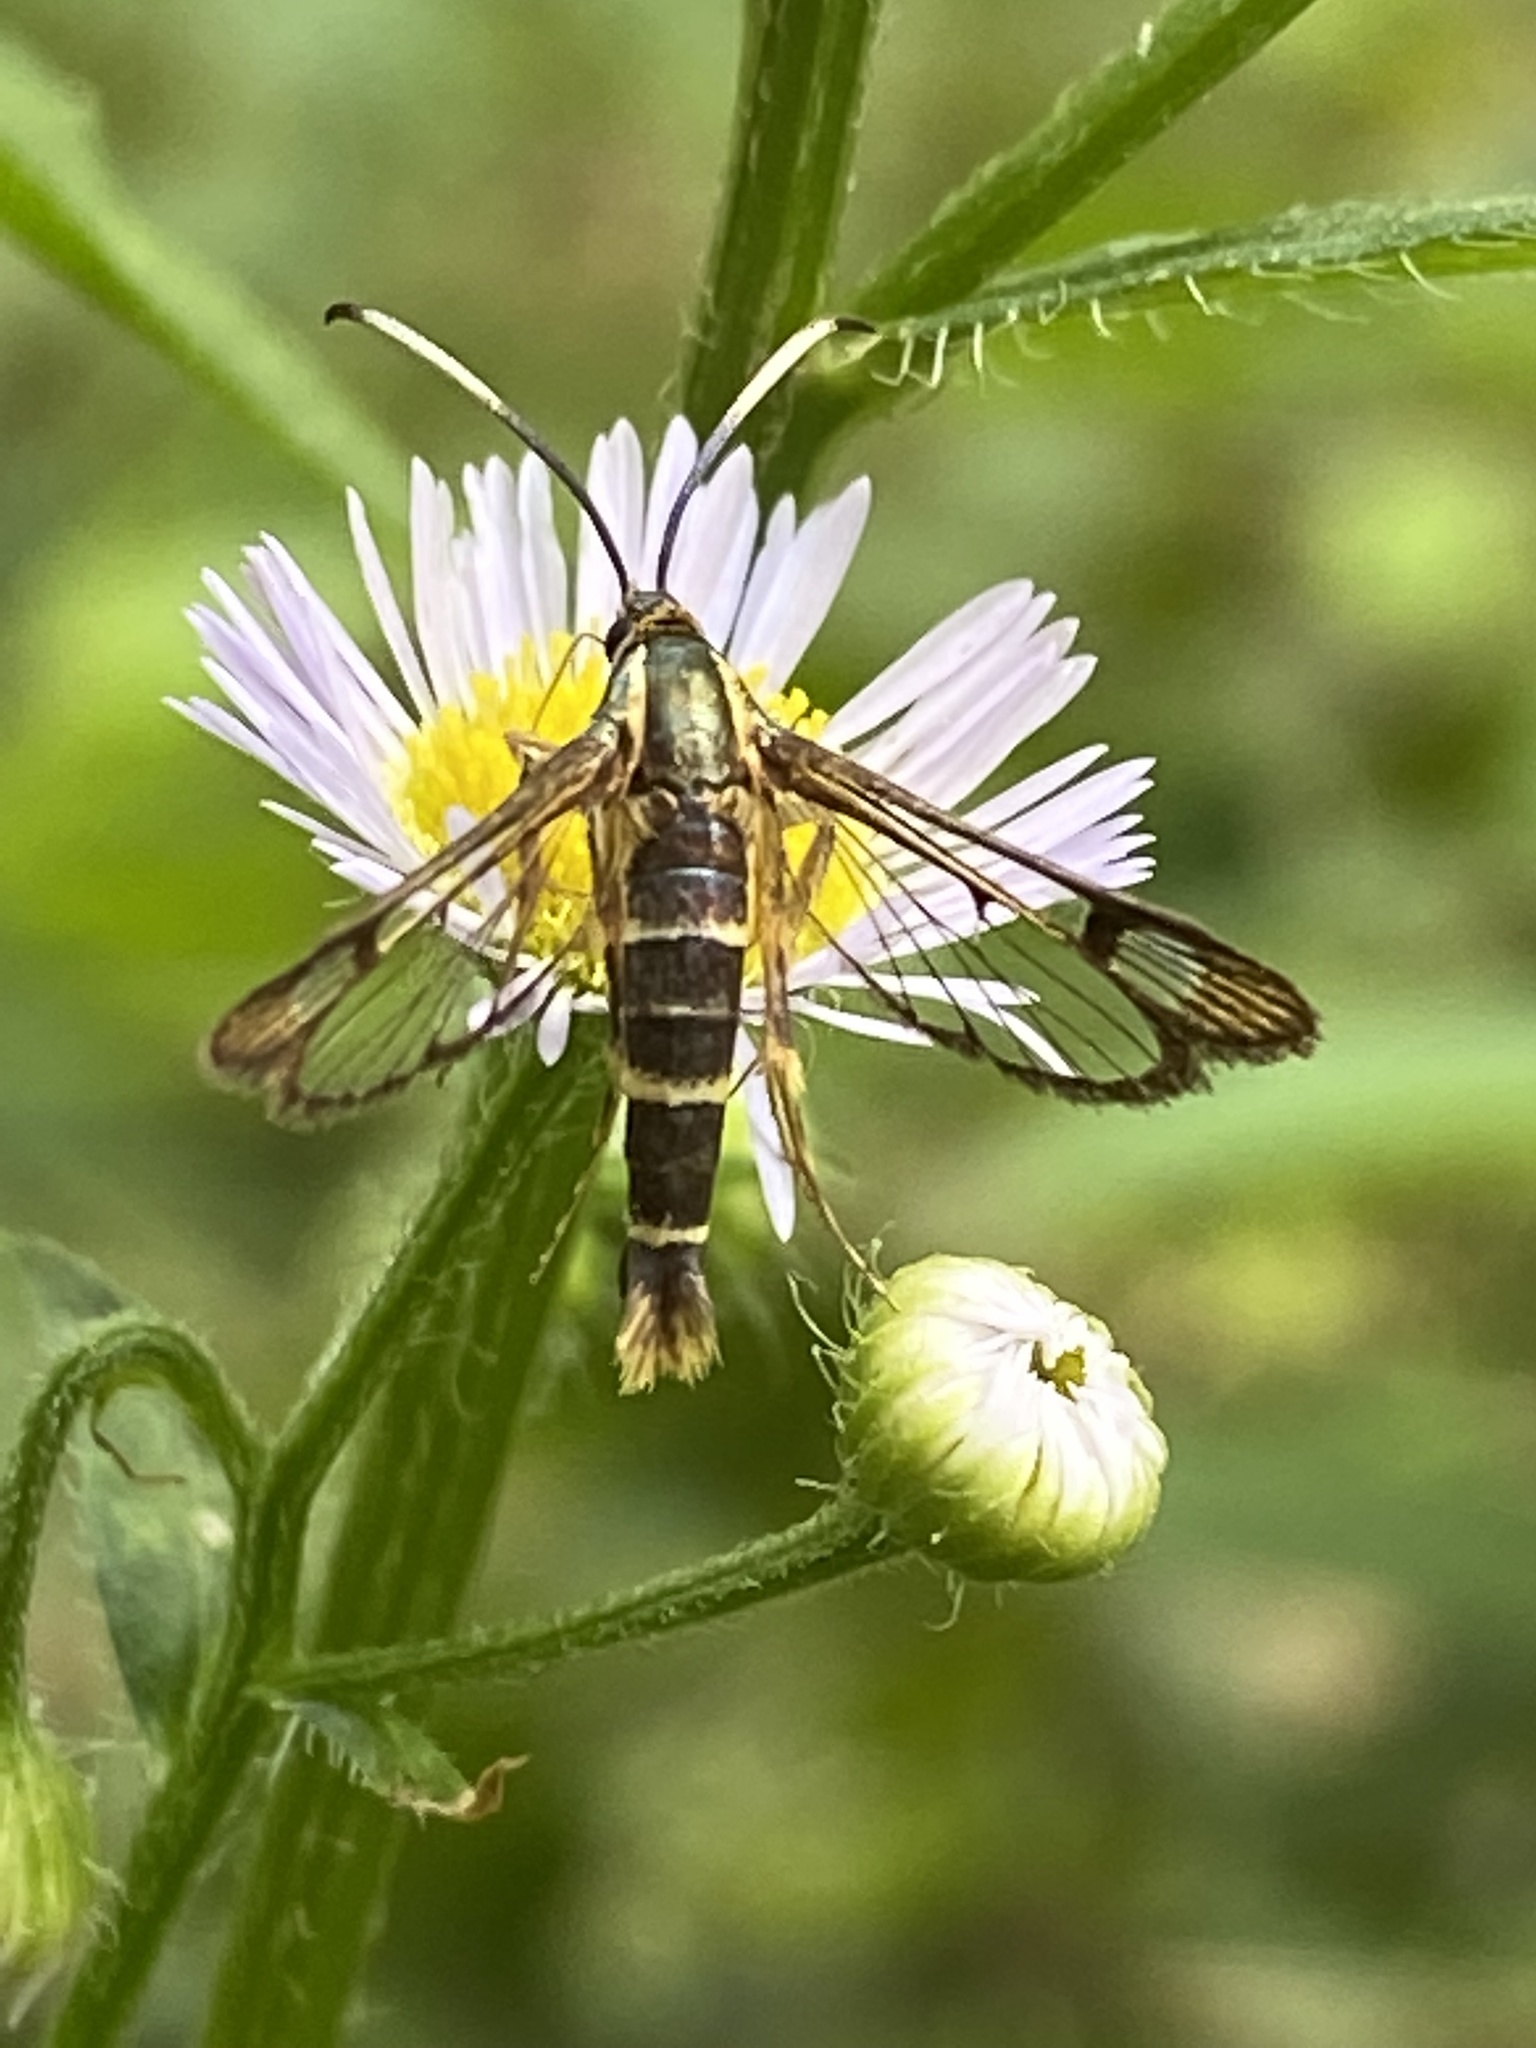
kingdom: Animalia
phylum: Arthropoda
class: Insecta
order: Lepidoptera
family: Sesiidae
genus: Carmenta
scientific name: Carmenta bassiformis
